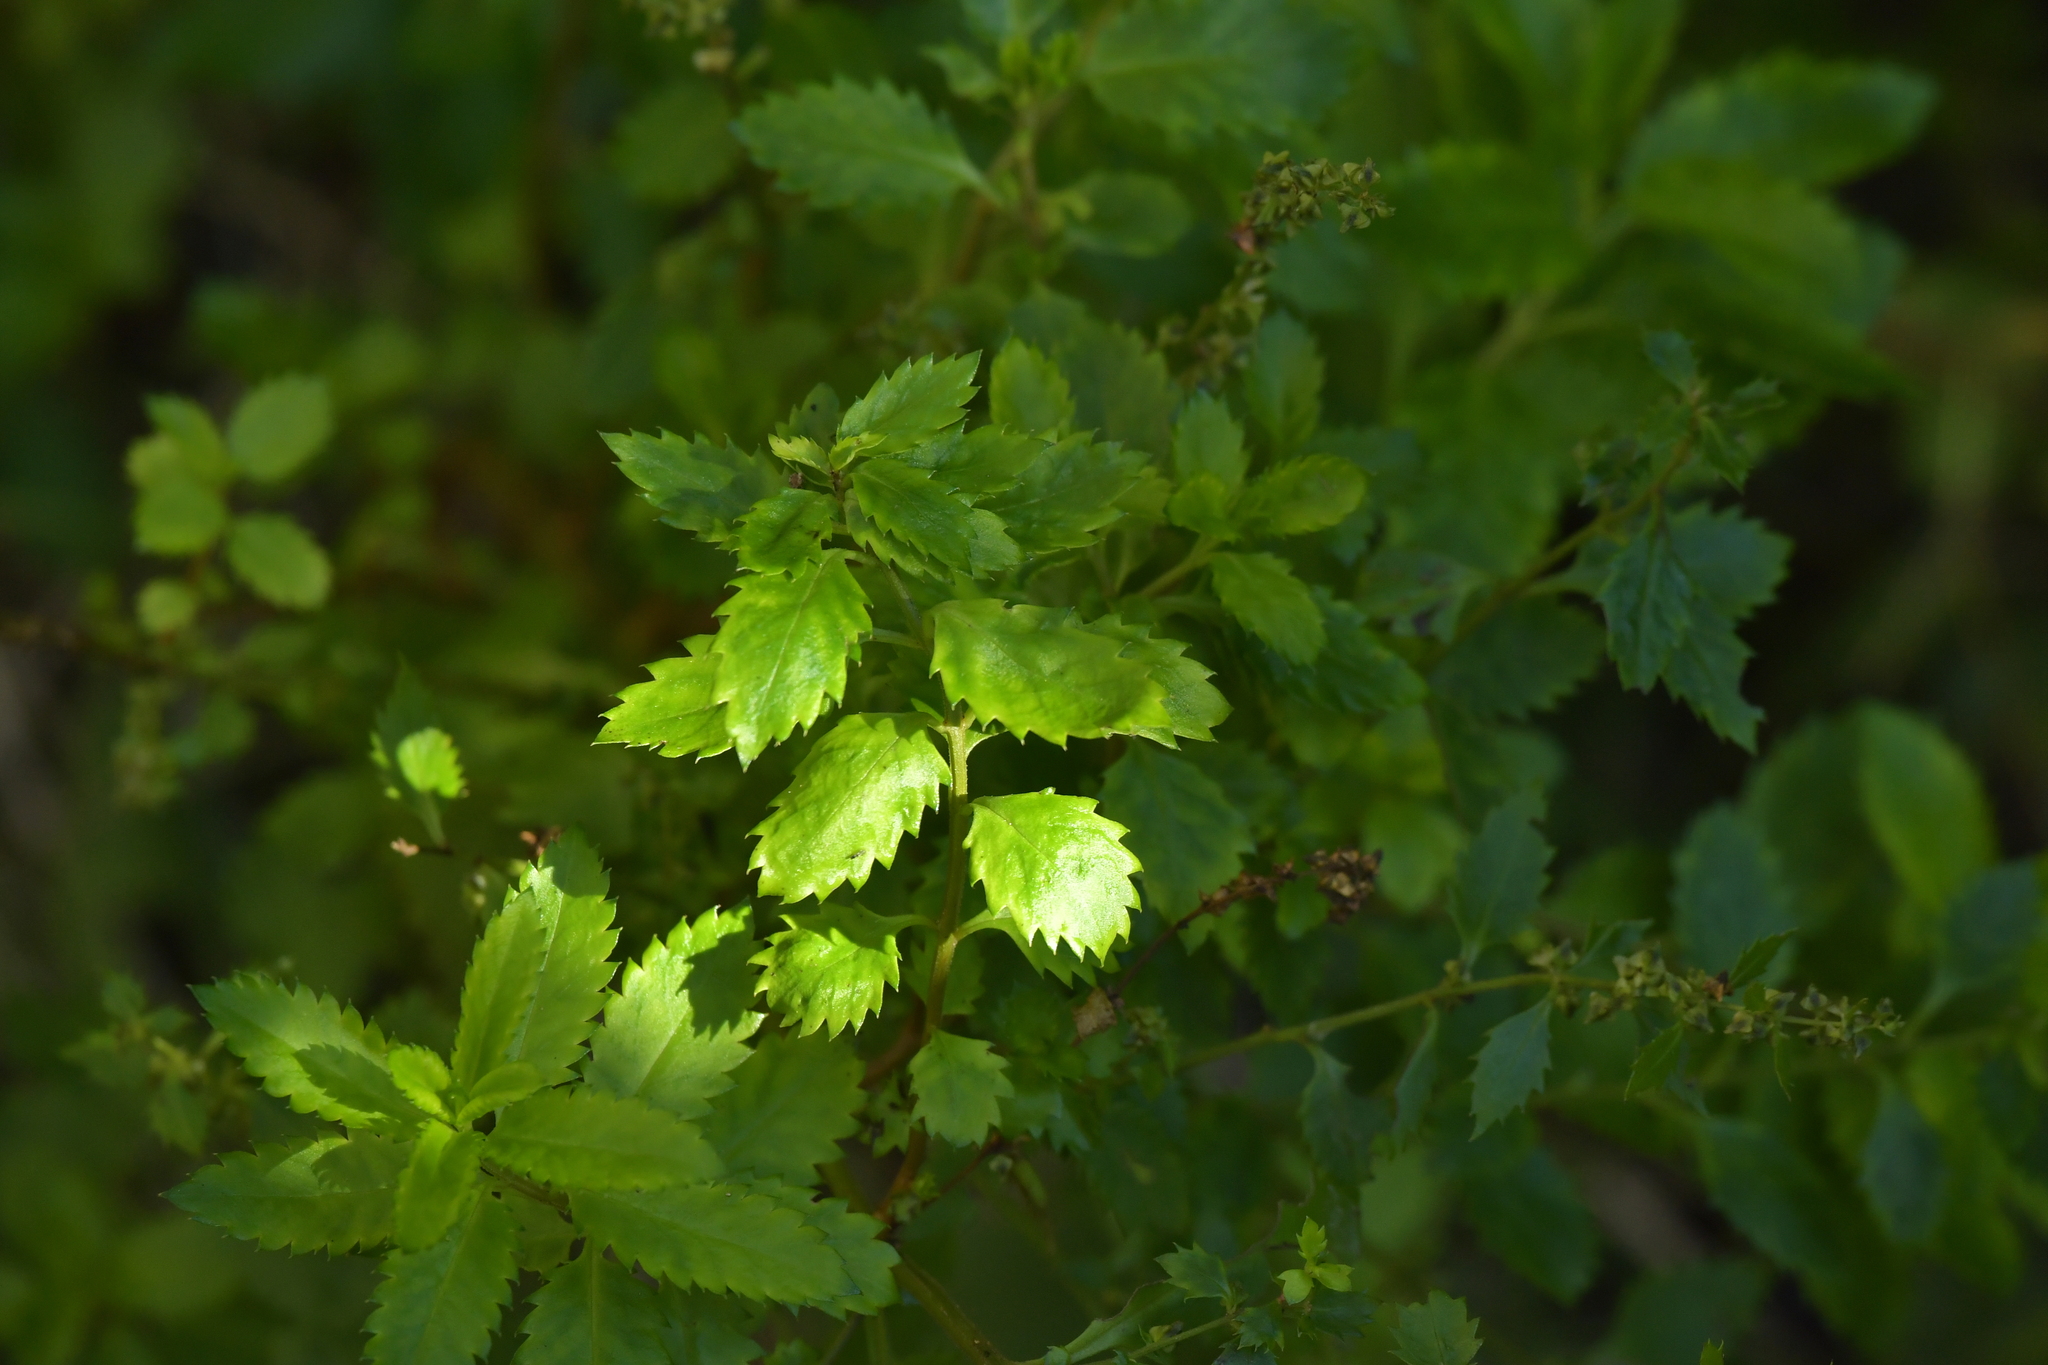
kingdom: Plantae
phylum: Tracheophyta
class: Magnoliopsida
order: Saxifragales
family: Haloragaceae
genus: Haloragis
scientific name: Haloragis erecta
